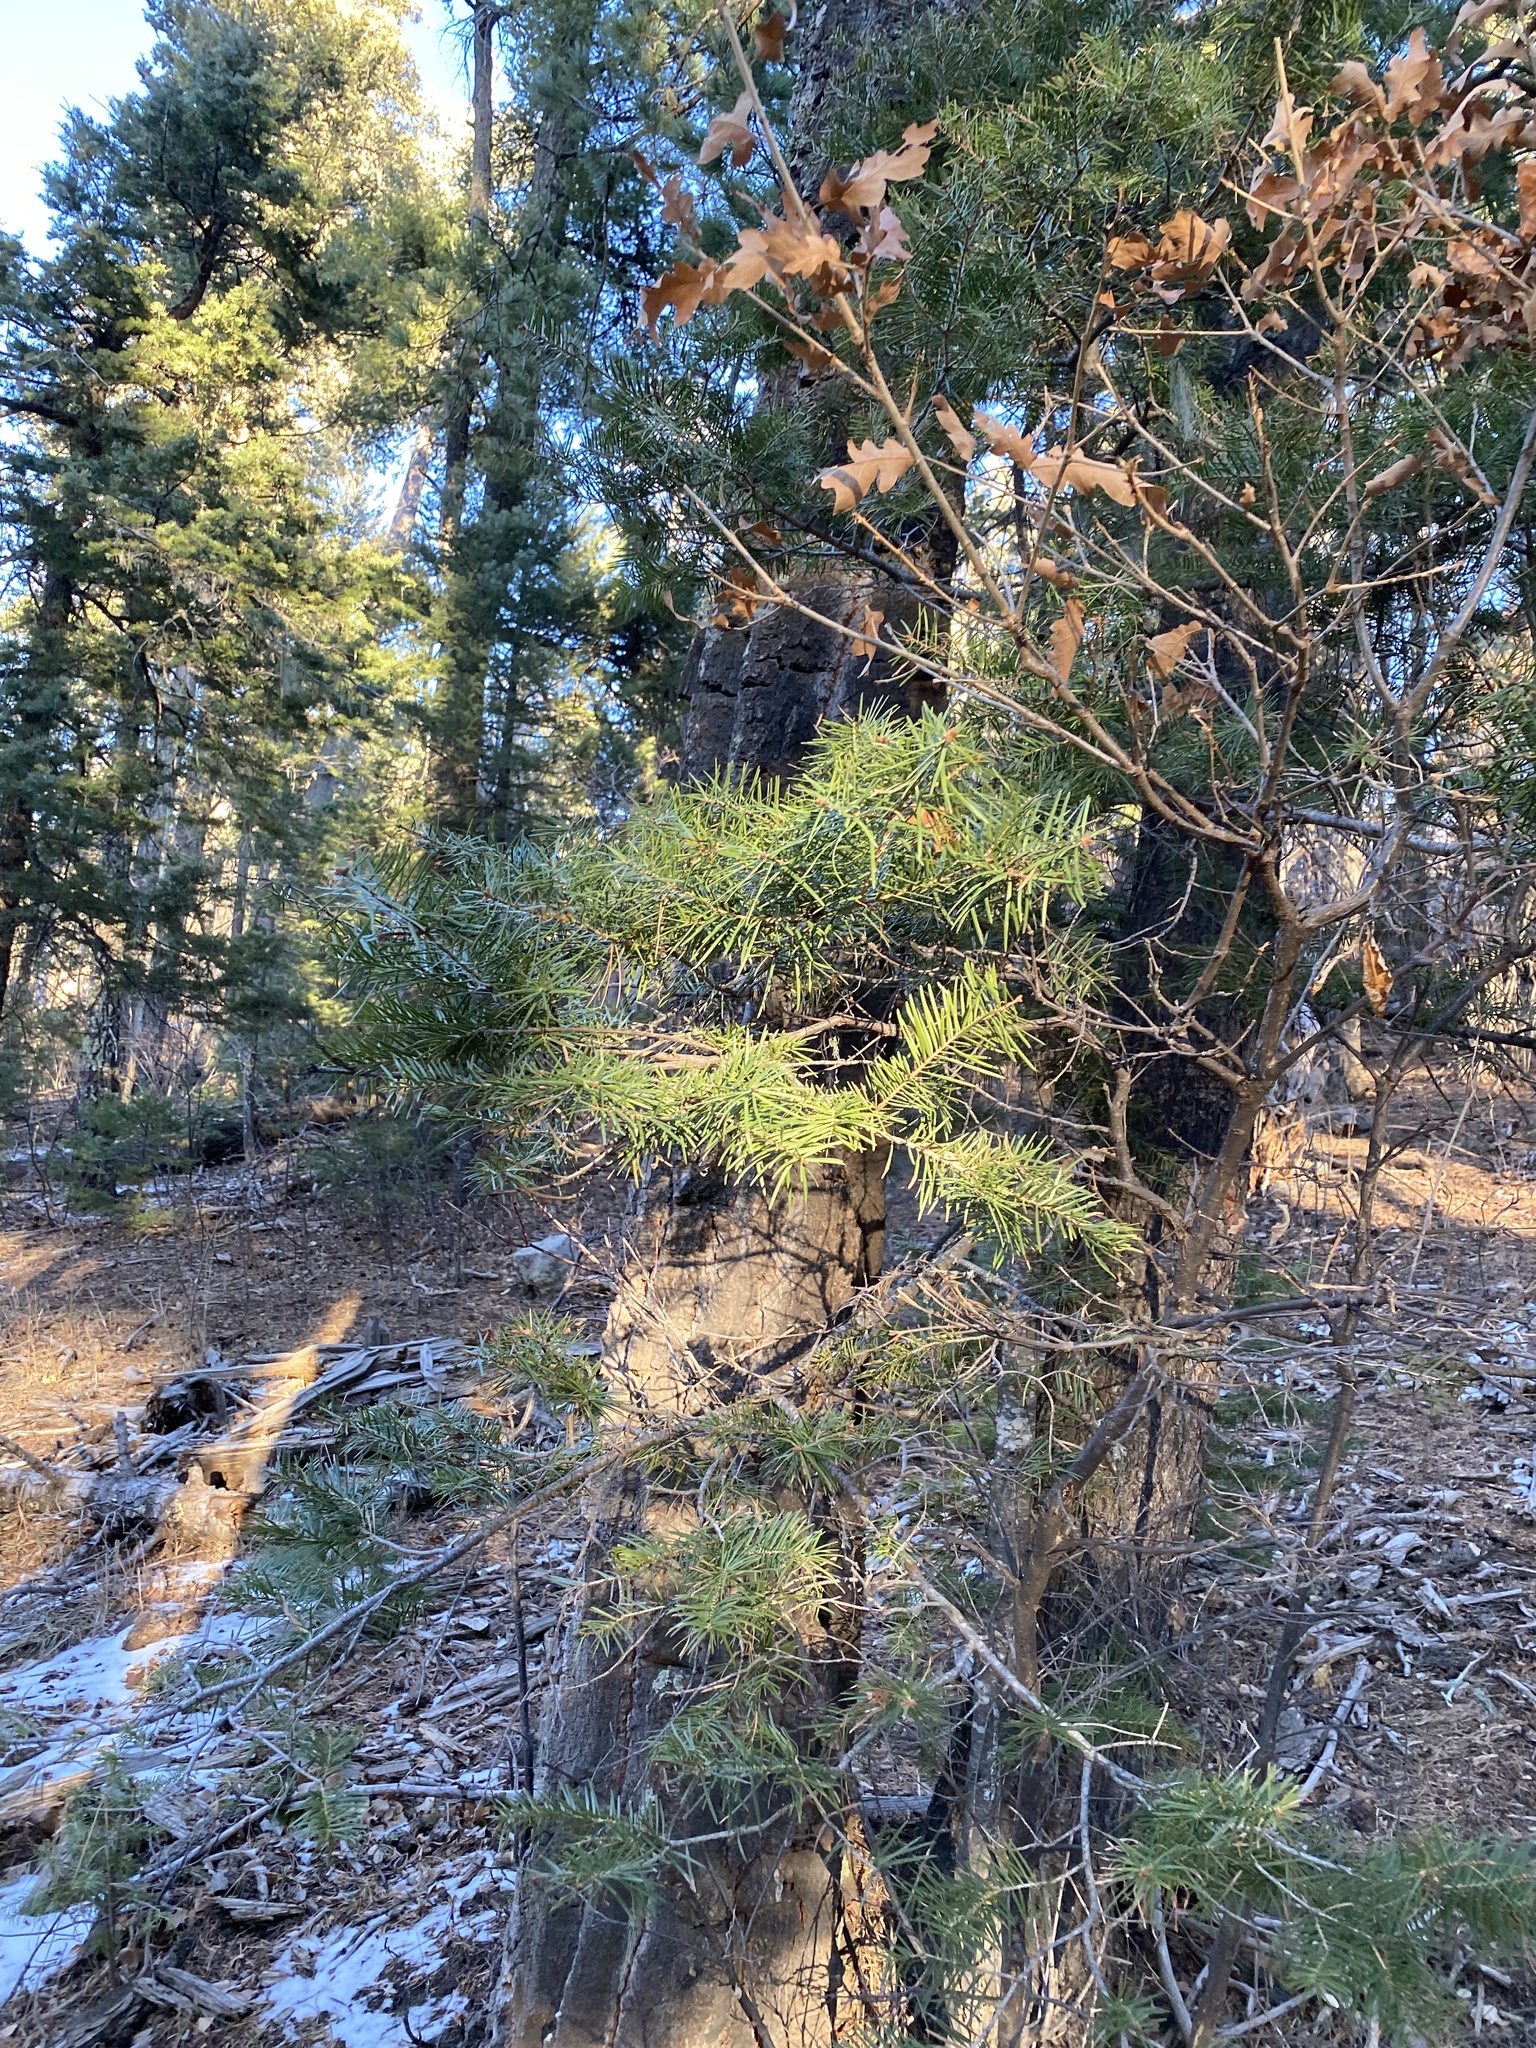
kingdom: Plantae
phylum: Tracheophyta
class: Pinopsida
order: Pinales
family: Pinaceae
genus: Pseudotsuga
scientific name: Pseudotsuga menziesii
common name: Douglas fir
